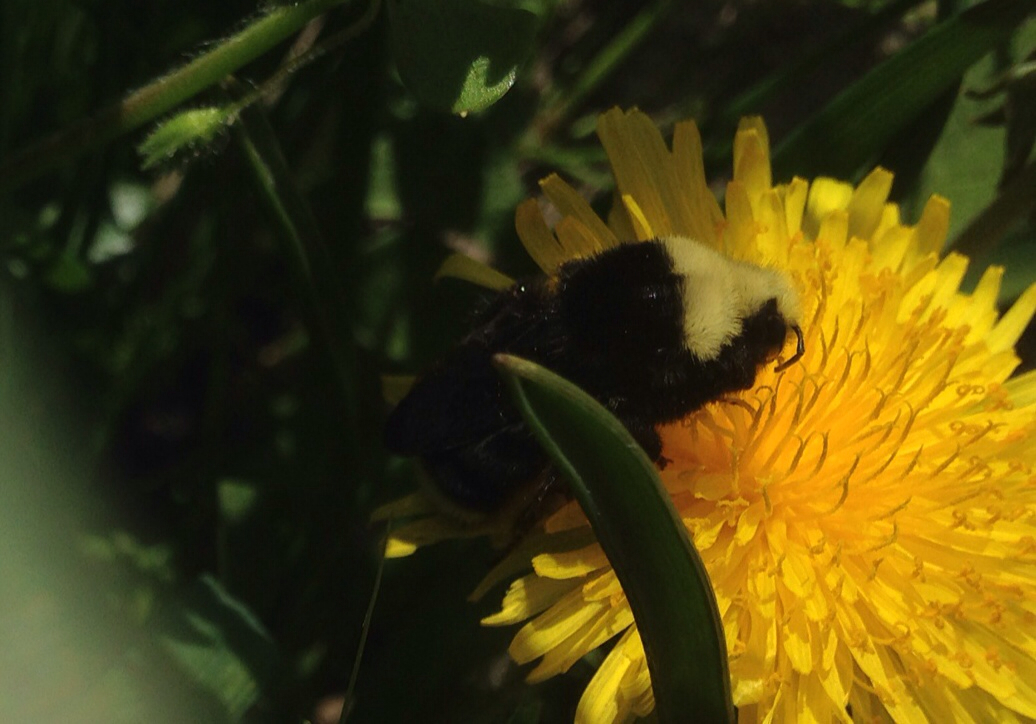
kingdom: Animalia
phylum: Arthropoda
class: Insecta
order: Hymenoptera
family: Apidae
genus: Bombus
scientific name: Bombus vosnesenskii
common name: Vosnesensky bumble bee
